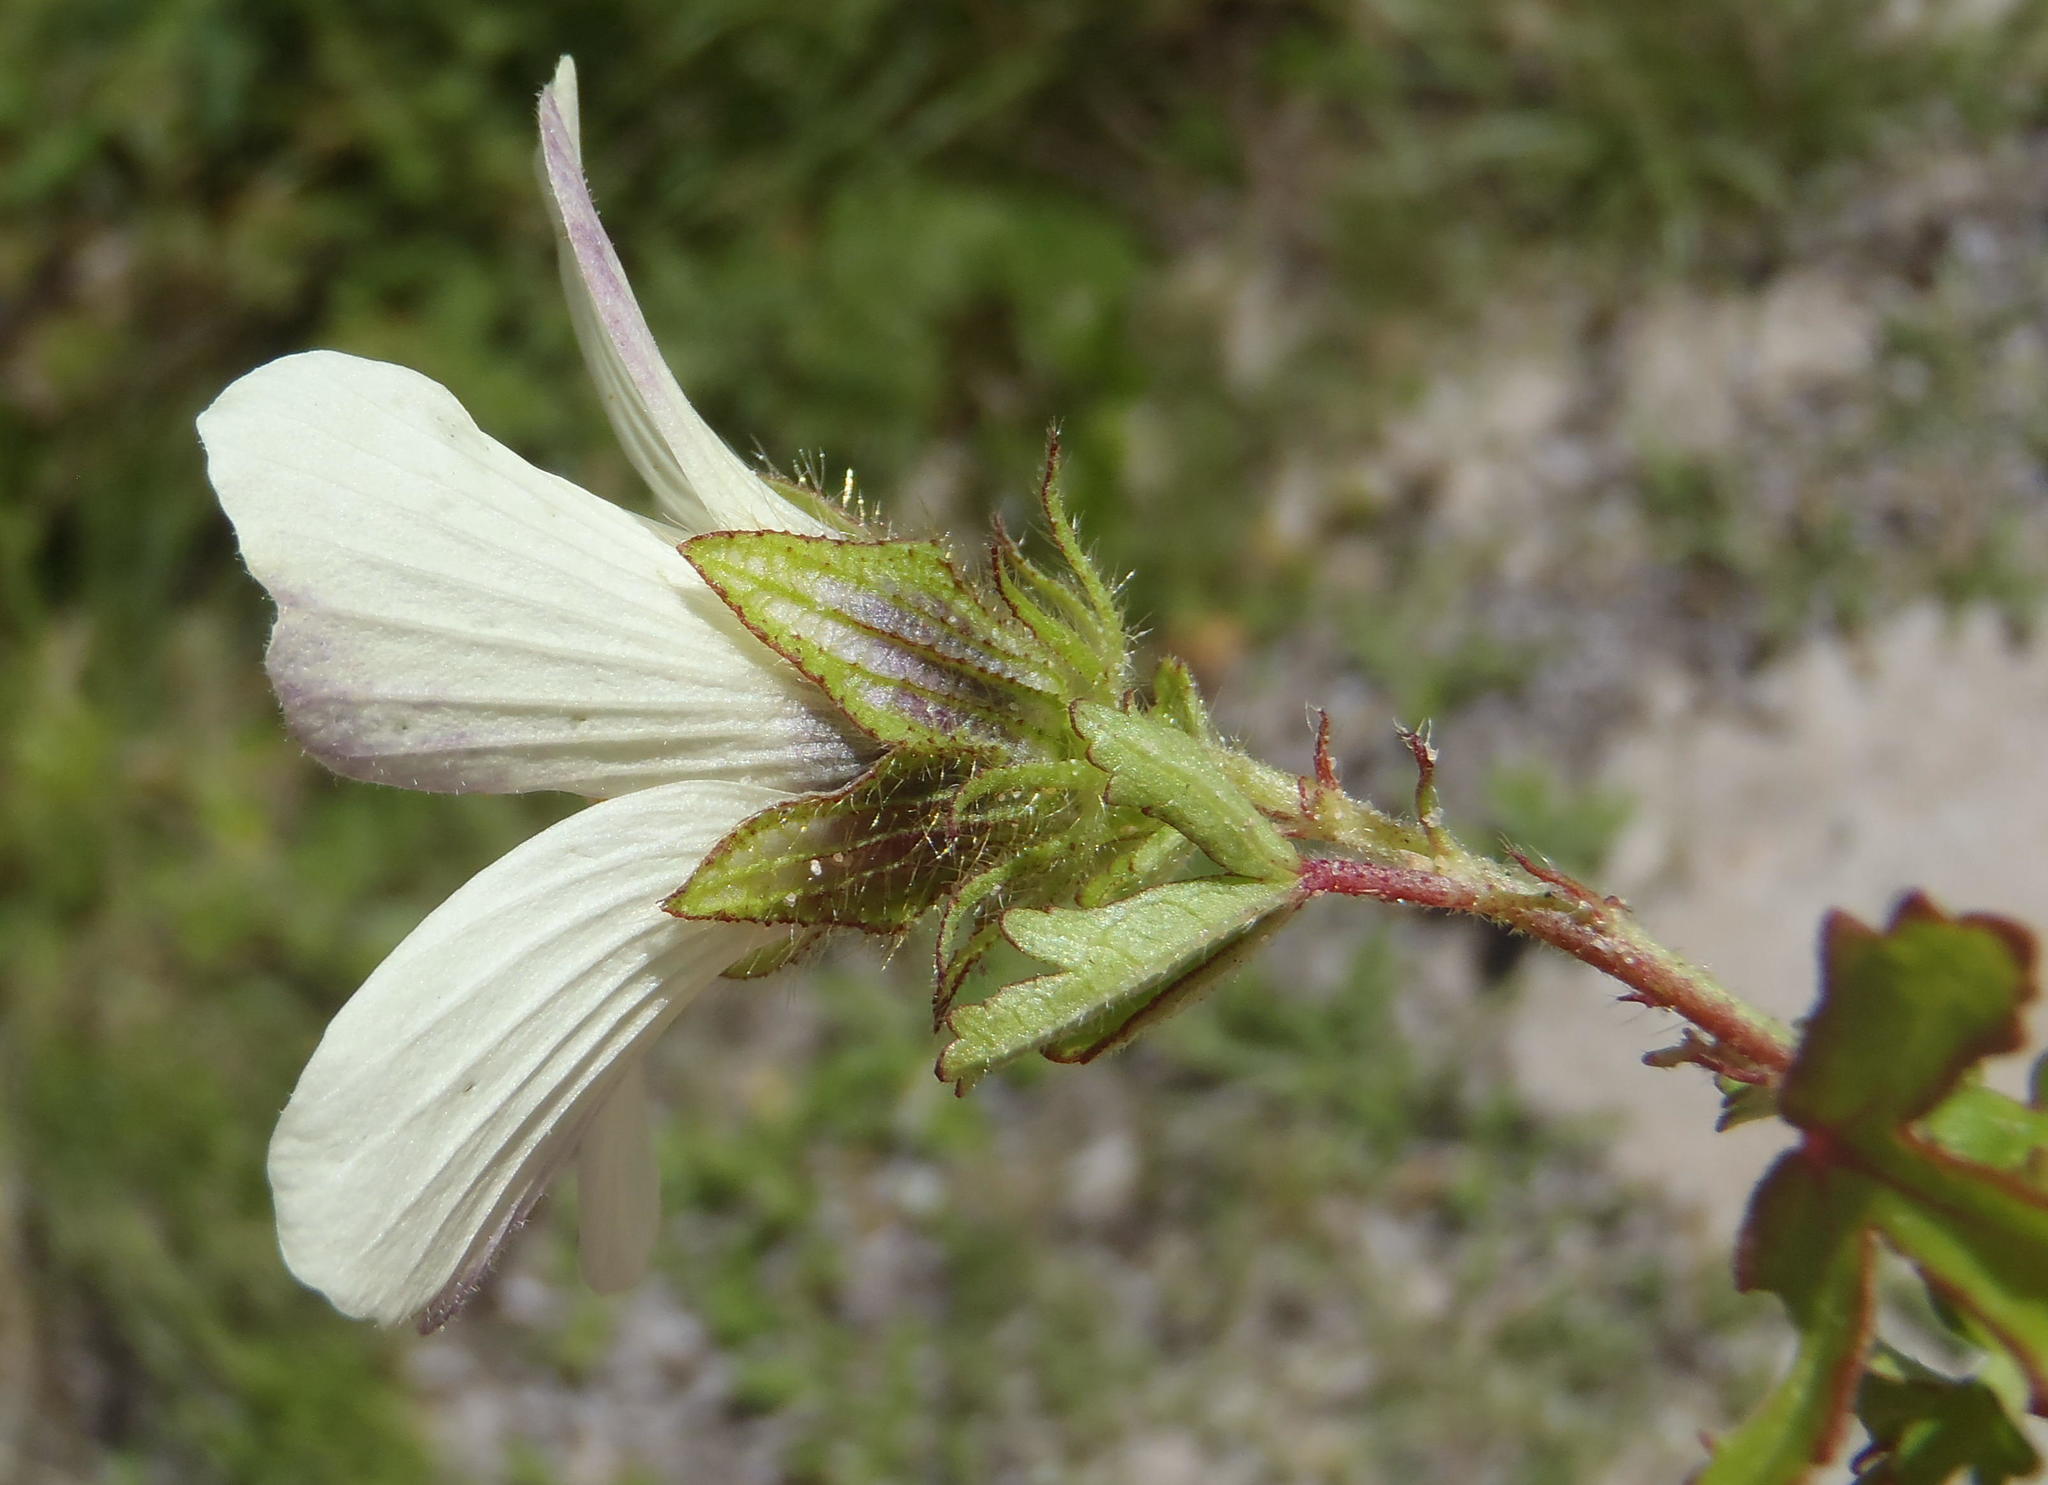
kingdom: Plantae
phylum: Tracheophyta
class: Magnoliopsida
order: Malvales
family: Malvaceae
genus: Hibiscus
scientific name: Hibiscus trionum
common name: Bladder ketmia
